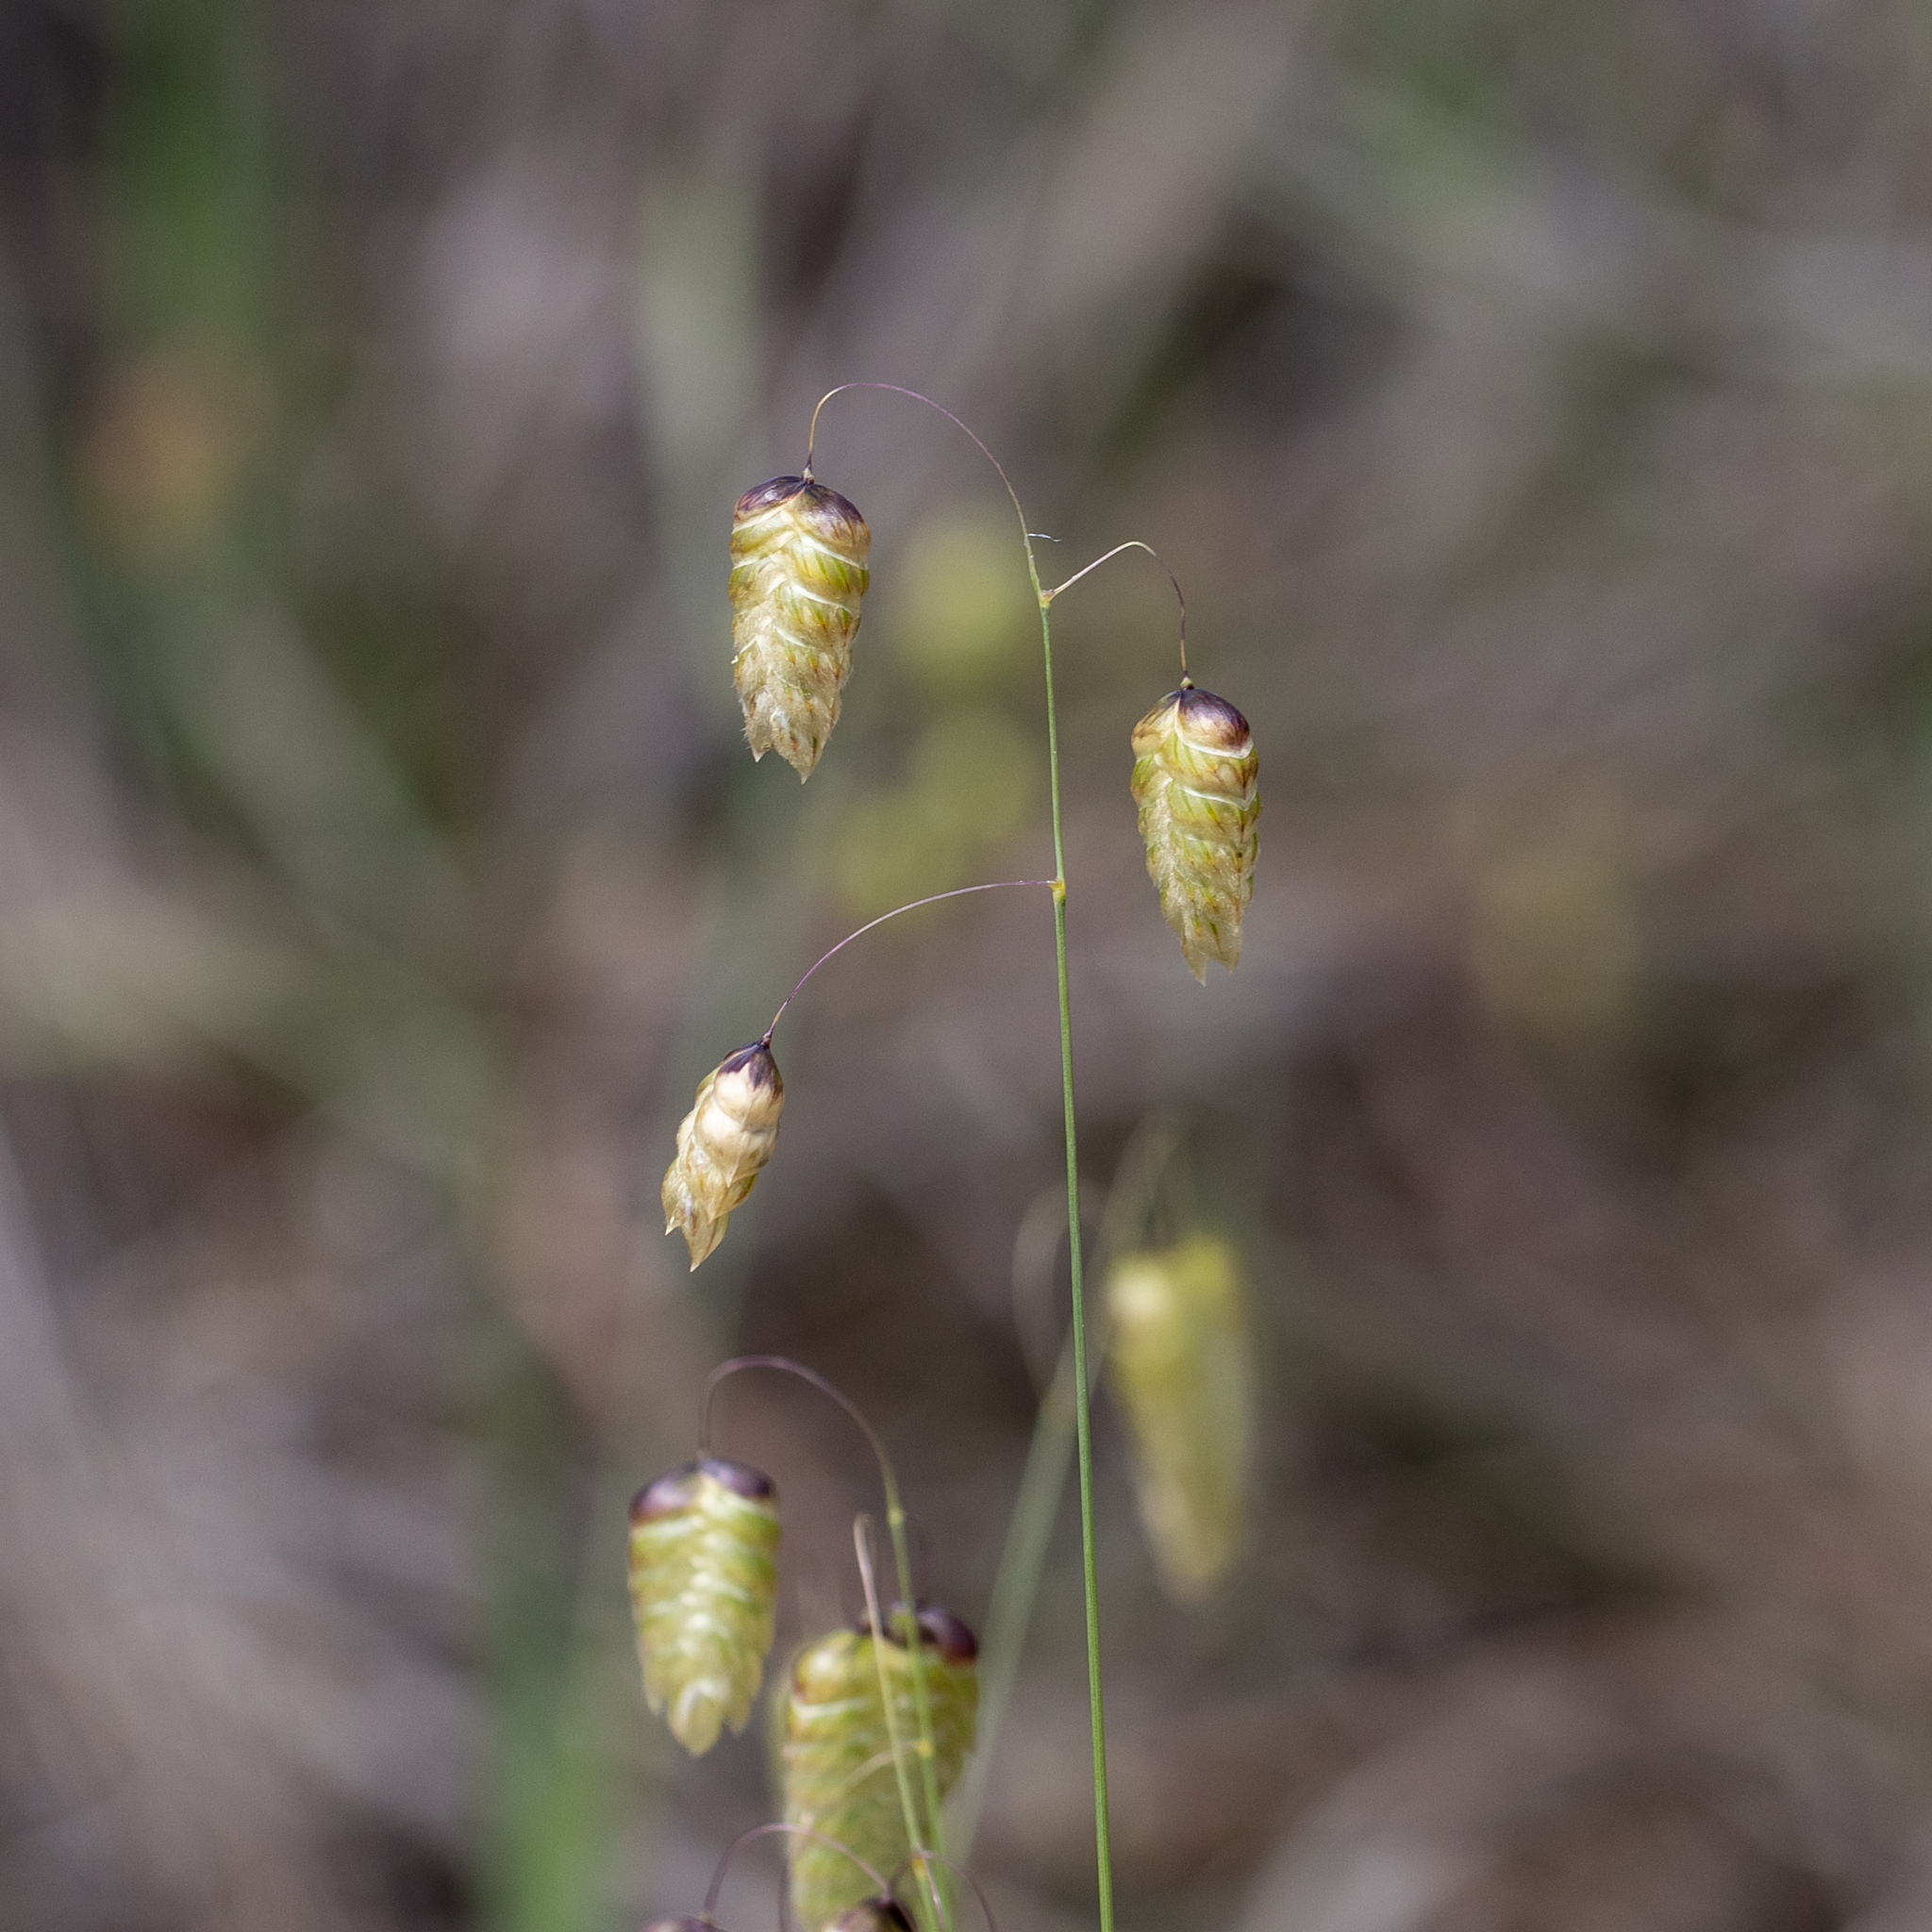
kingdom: Plantae
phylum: Tracheophyta
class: Liliopsida
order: Poales
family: Poaceae
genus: Briza
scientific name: Briza maxima
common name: Big quakinggrass
